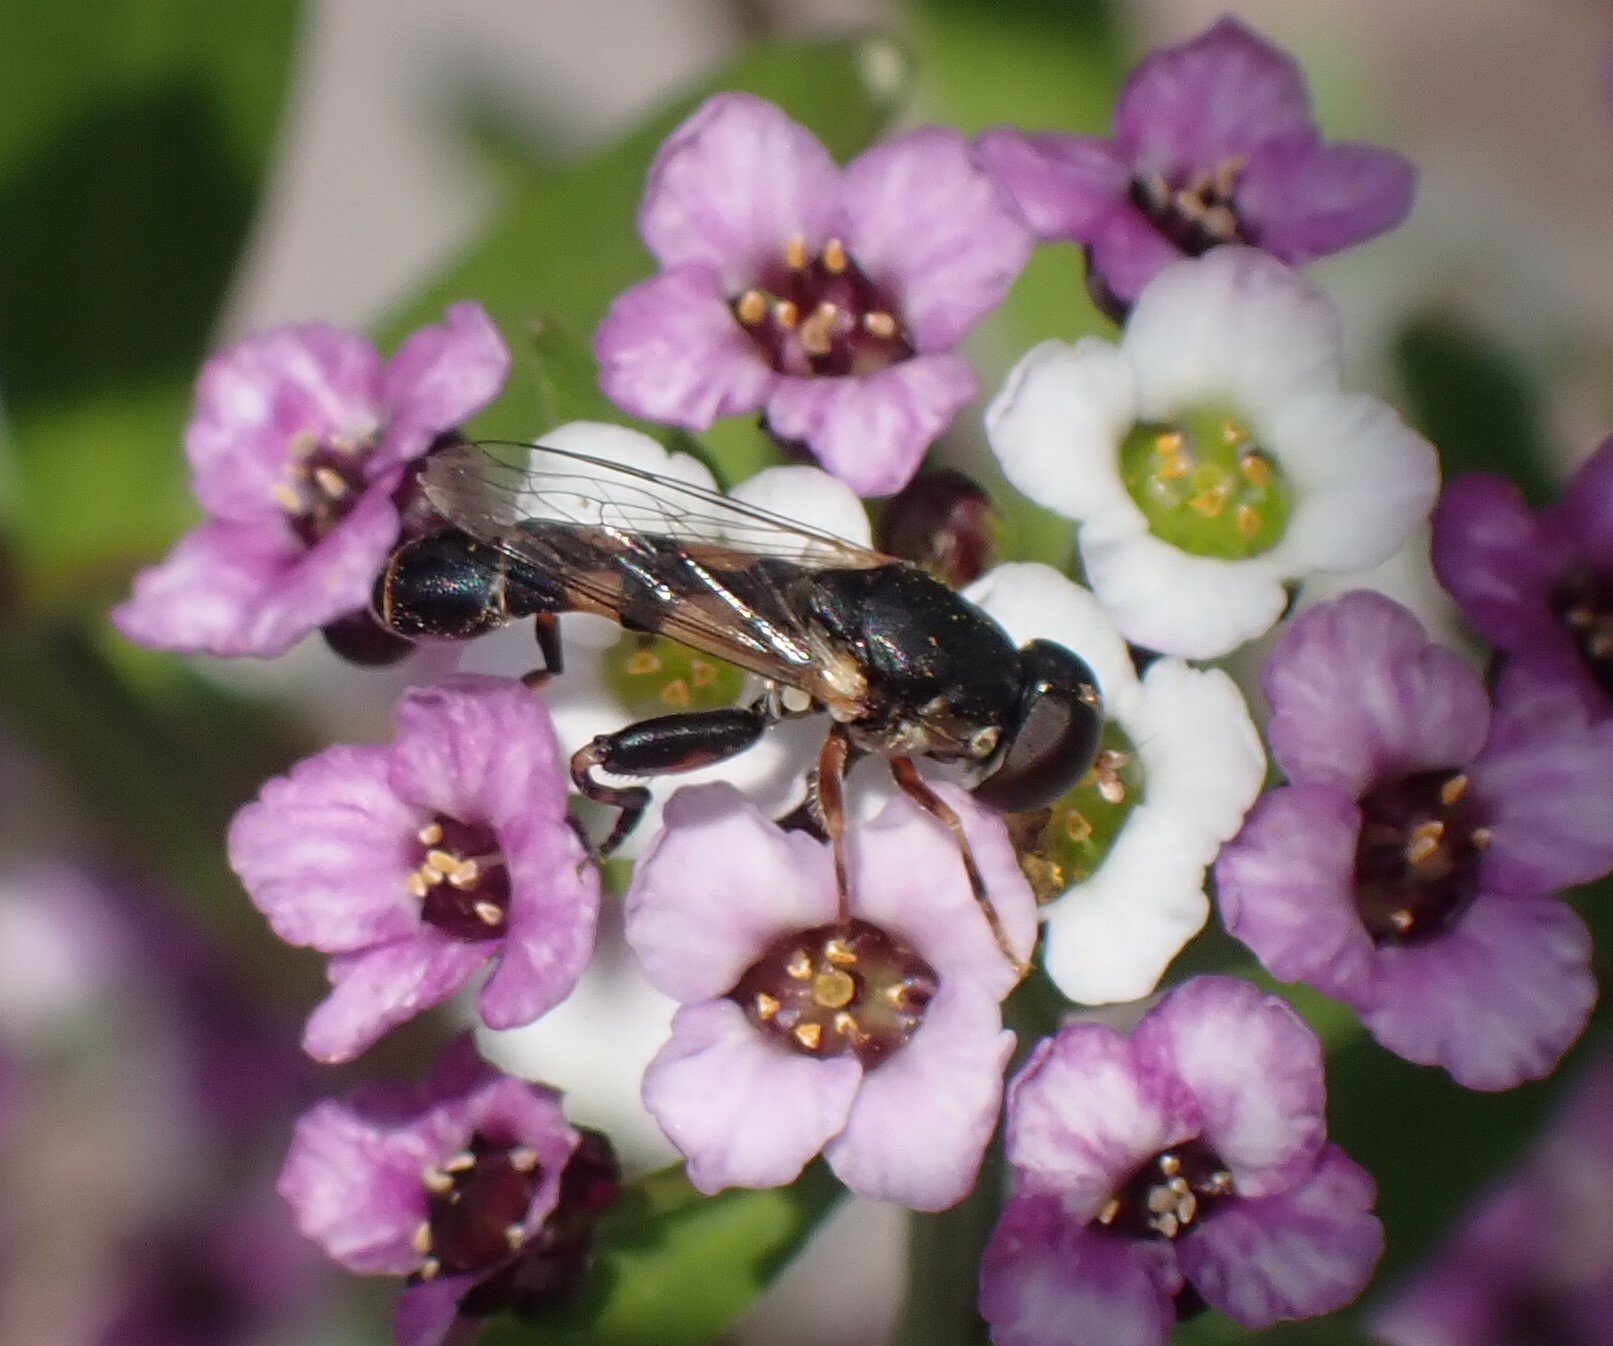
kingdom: Animalia
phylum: Arthropoda
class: Insecta
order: Diptera
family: Syrphidae
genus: Syritta
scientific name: Syritta pipiens
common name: Hover fly
